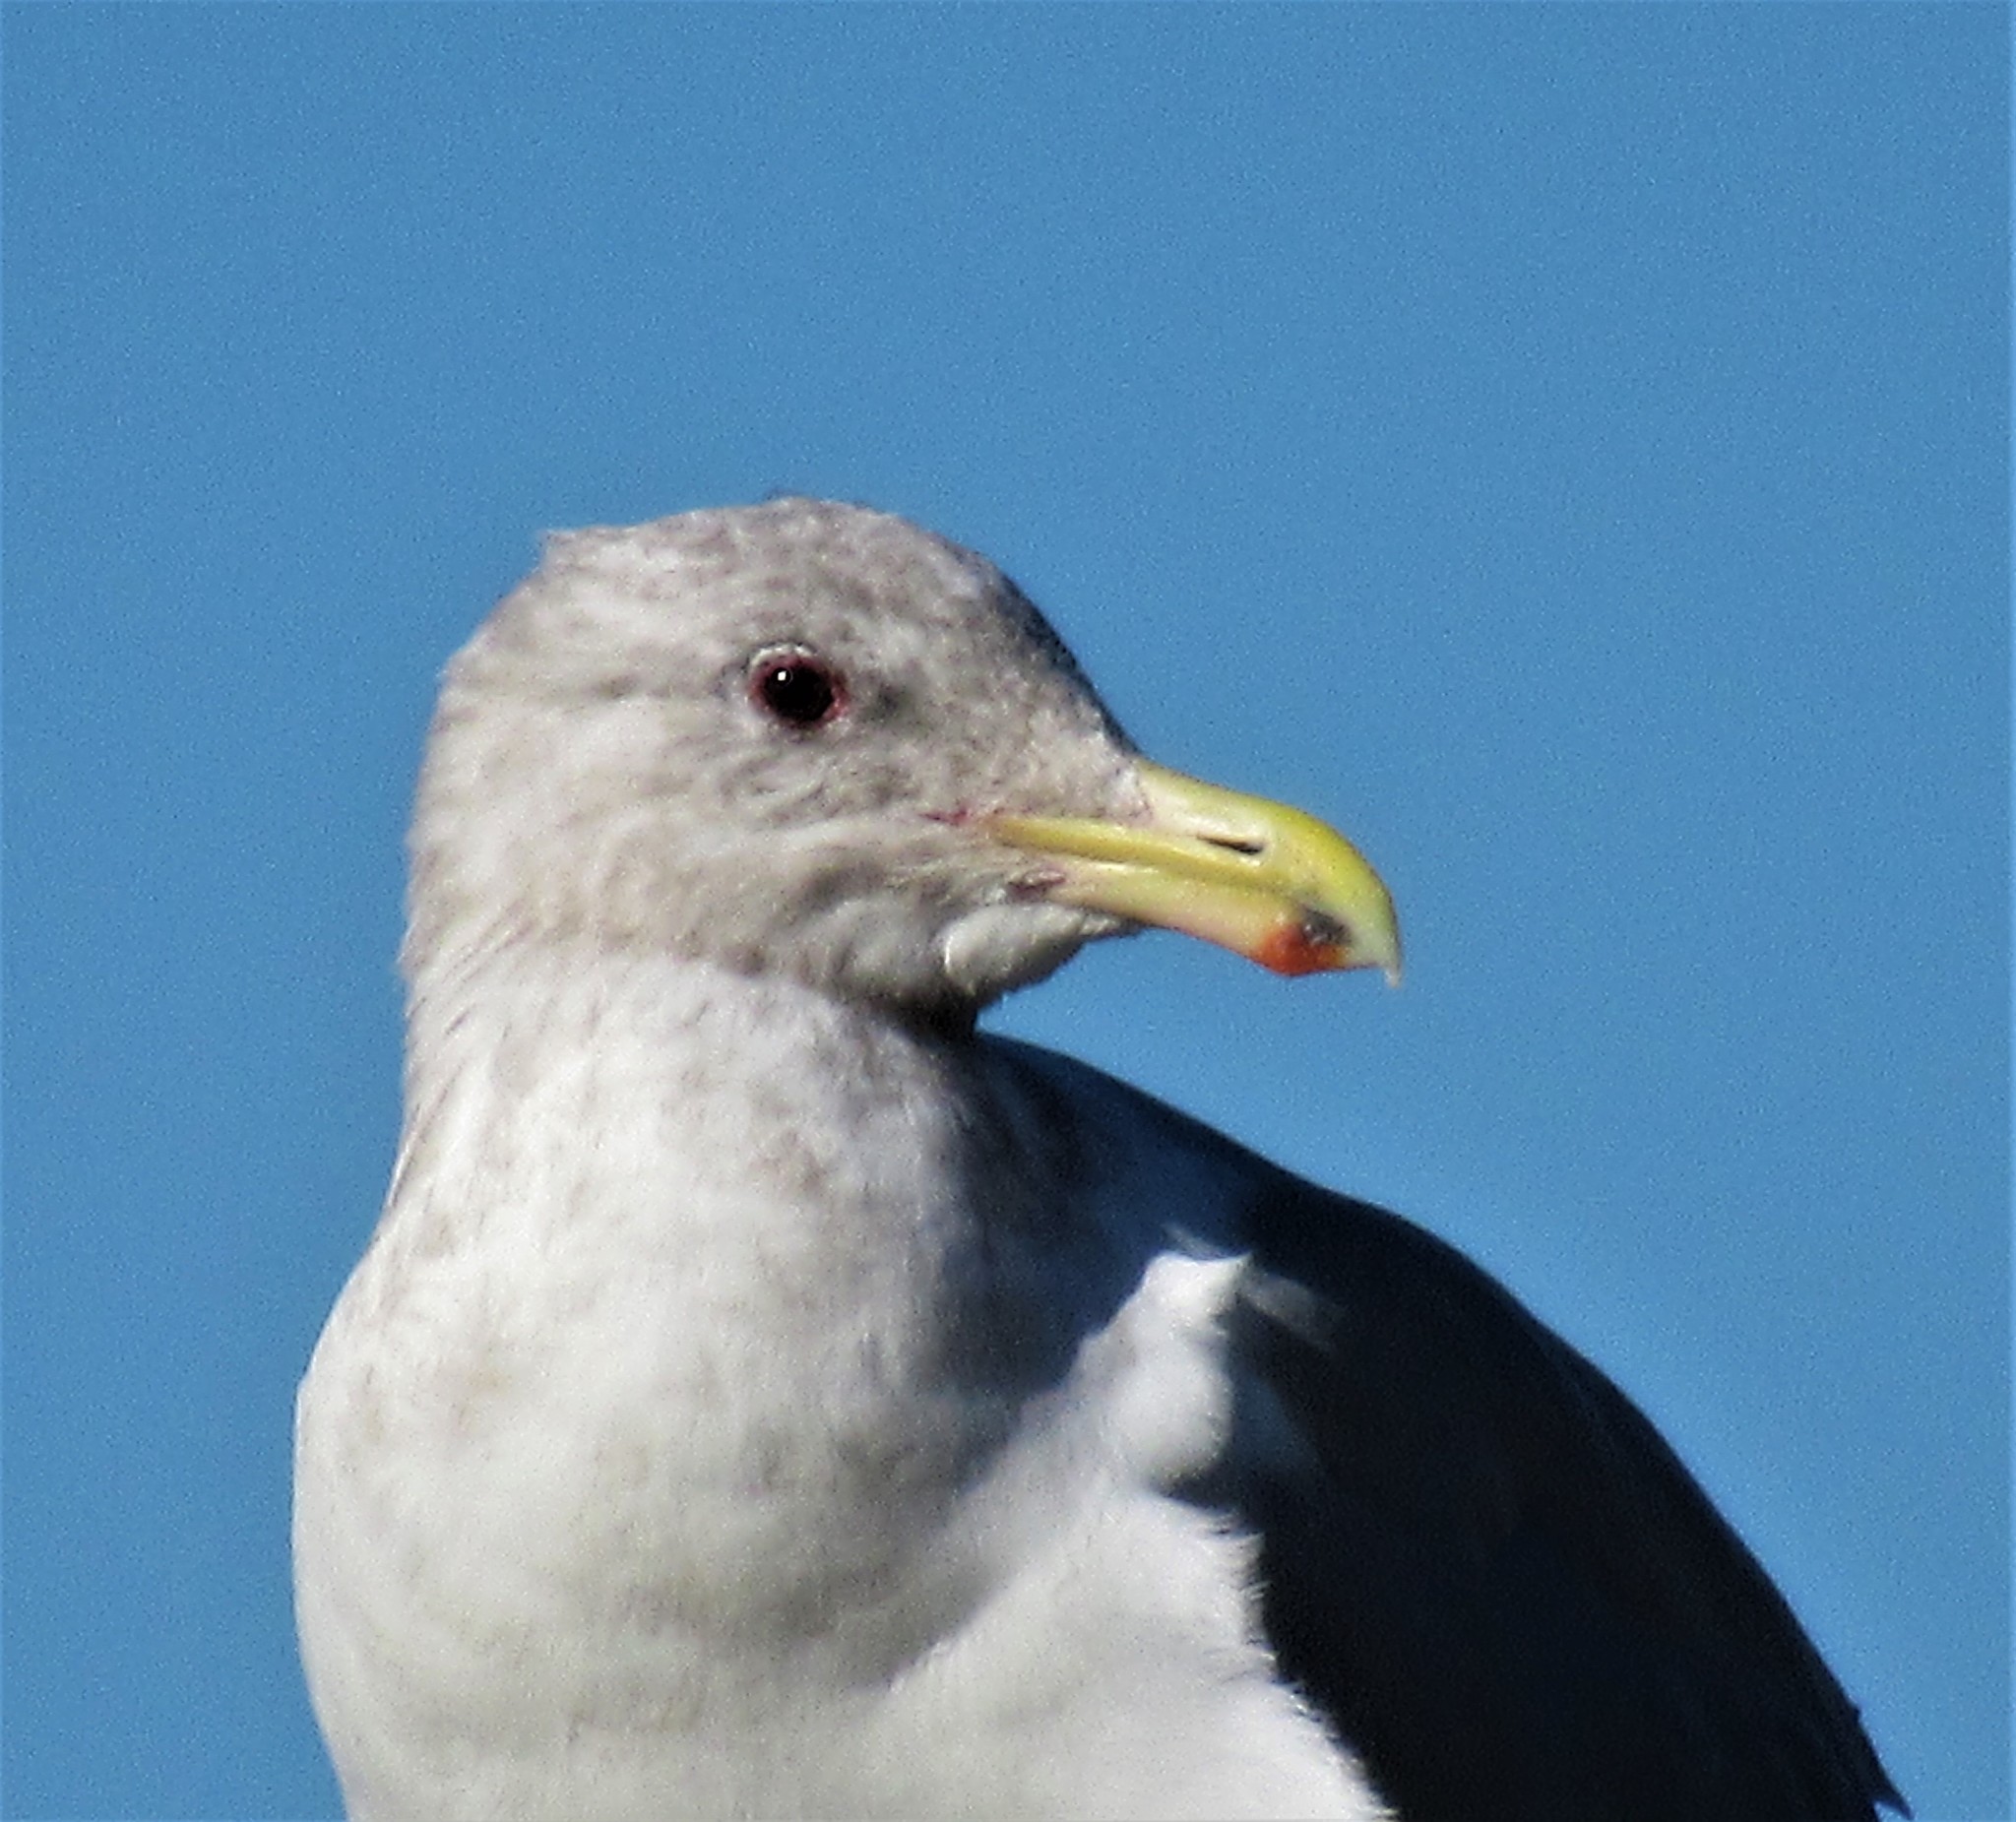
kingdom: Animalia
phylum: Chordata
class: Aves
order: Charadriiformes
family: Laridae
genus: Larus
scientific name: Larus
